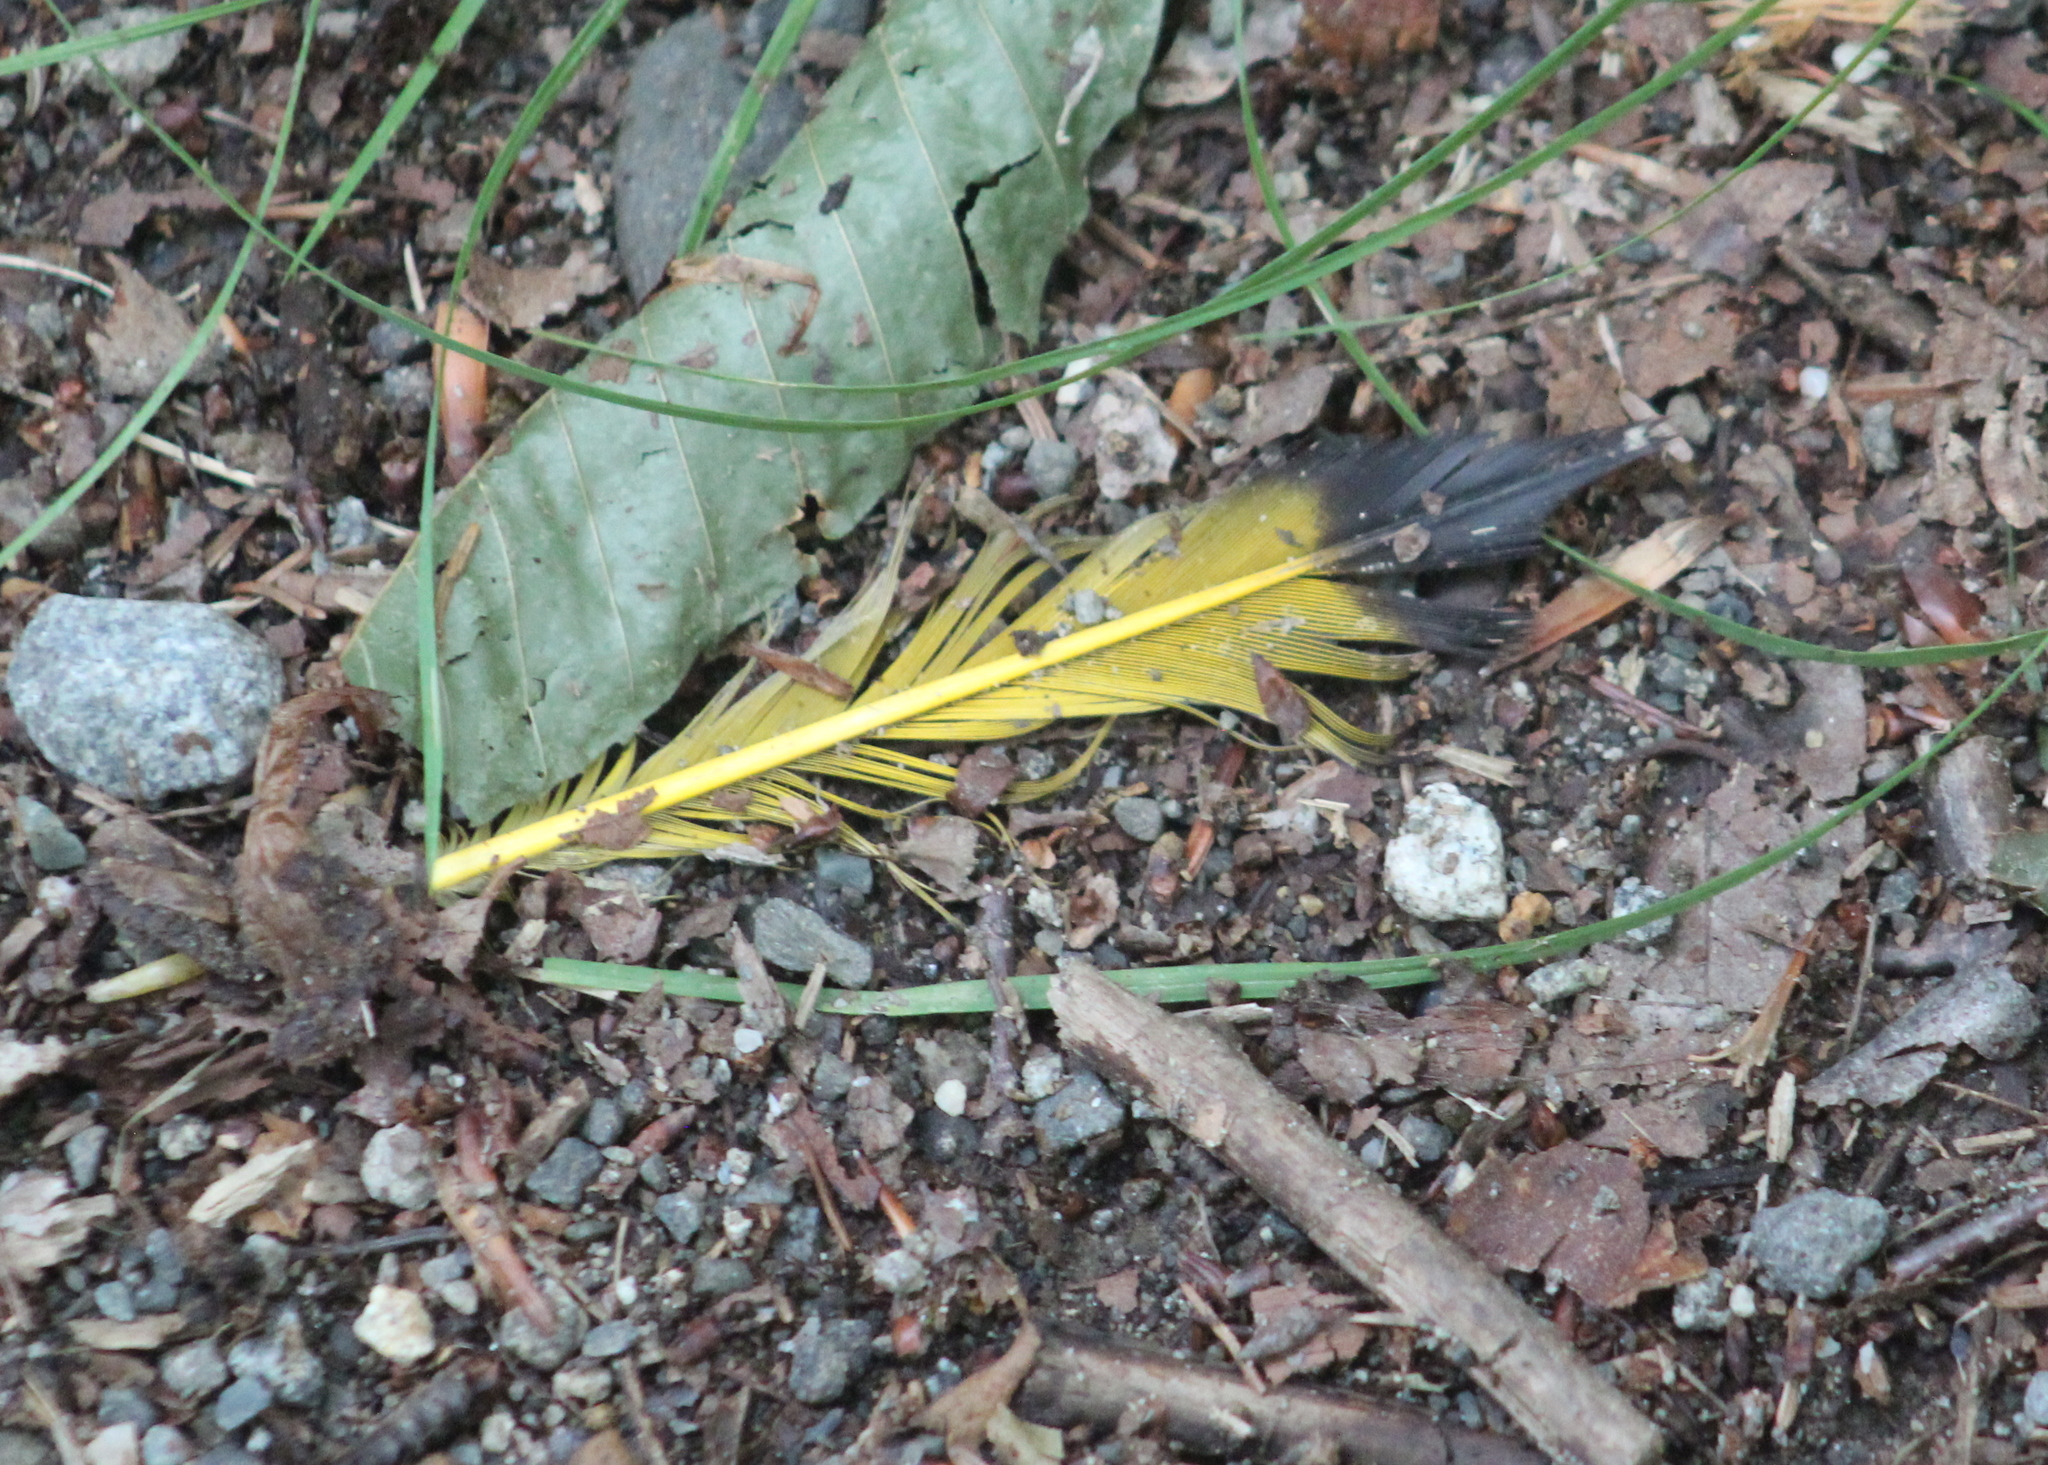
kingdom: Animalia
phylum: Chordata
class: Aves
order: Piciformes
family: Picidae
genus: Colaptes
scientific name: Colaptes auratus
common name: Northern flicker
